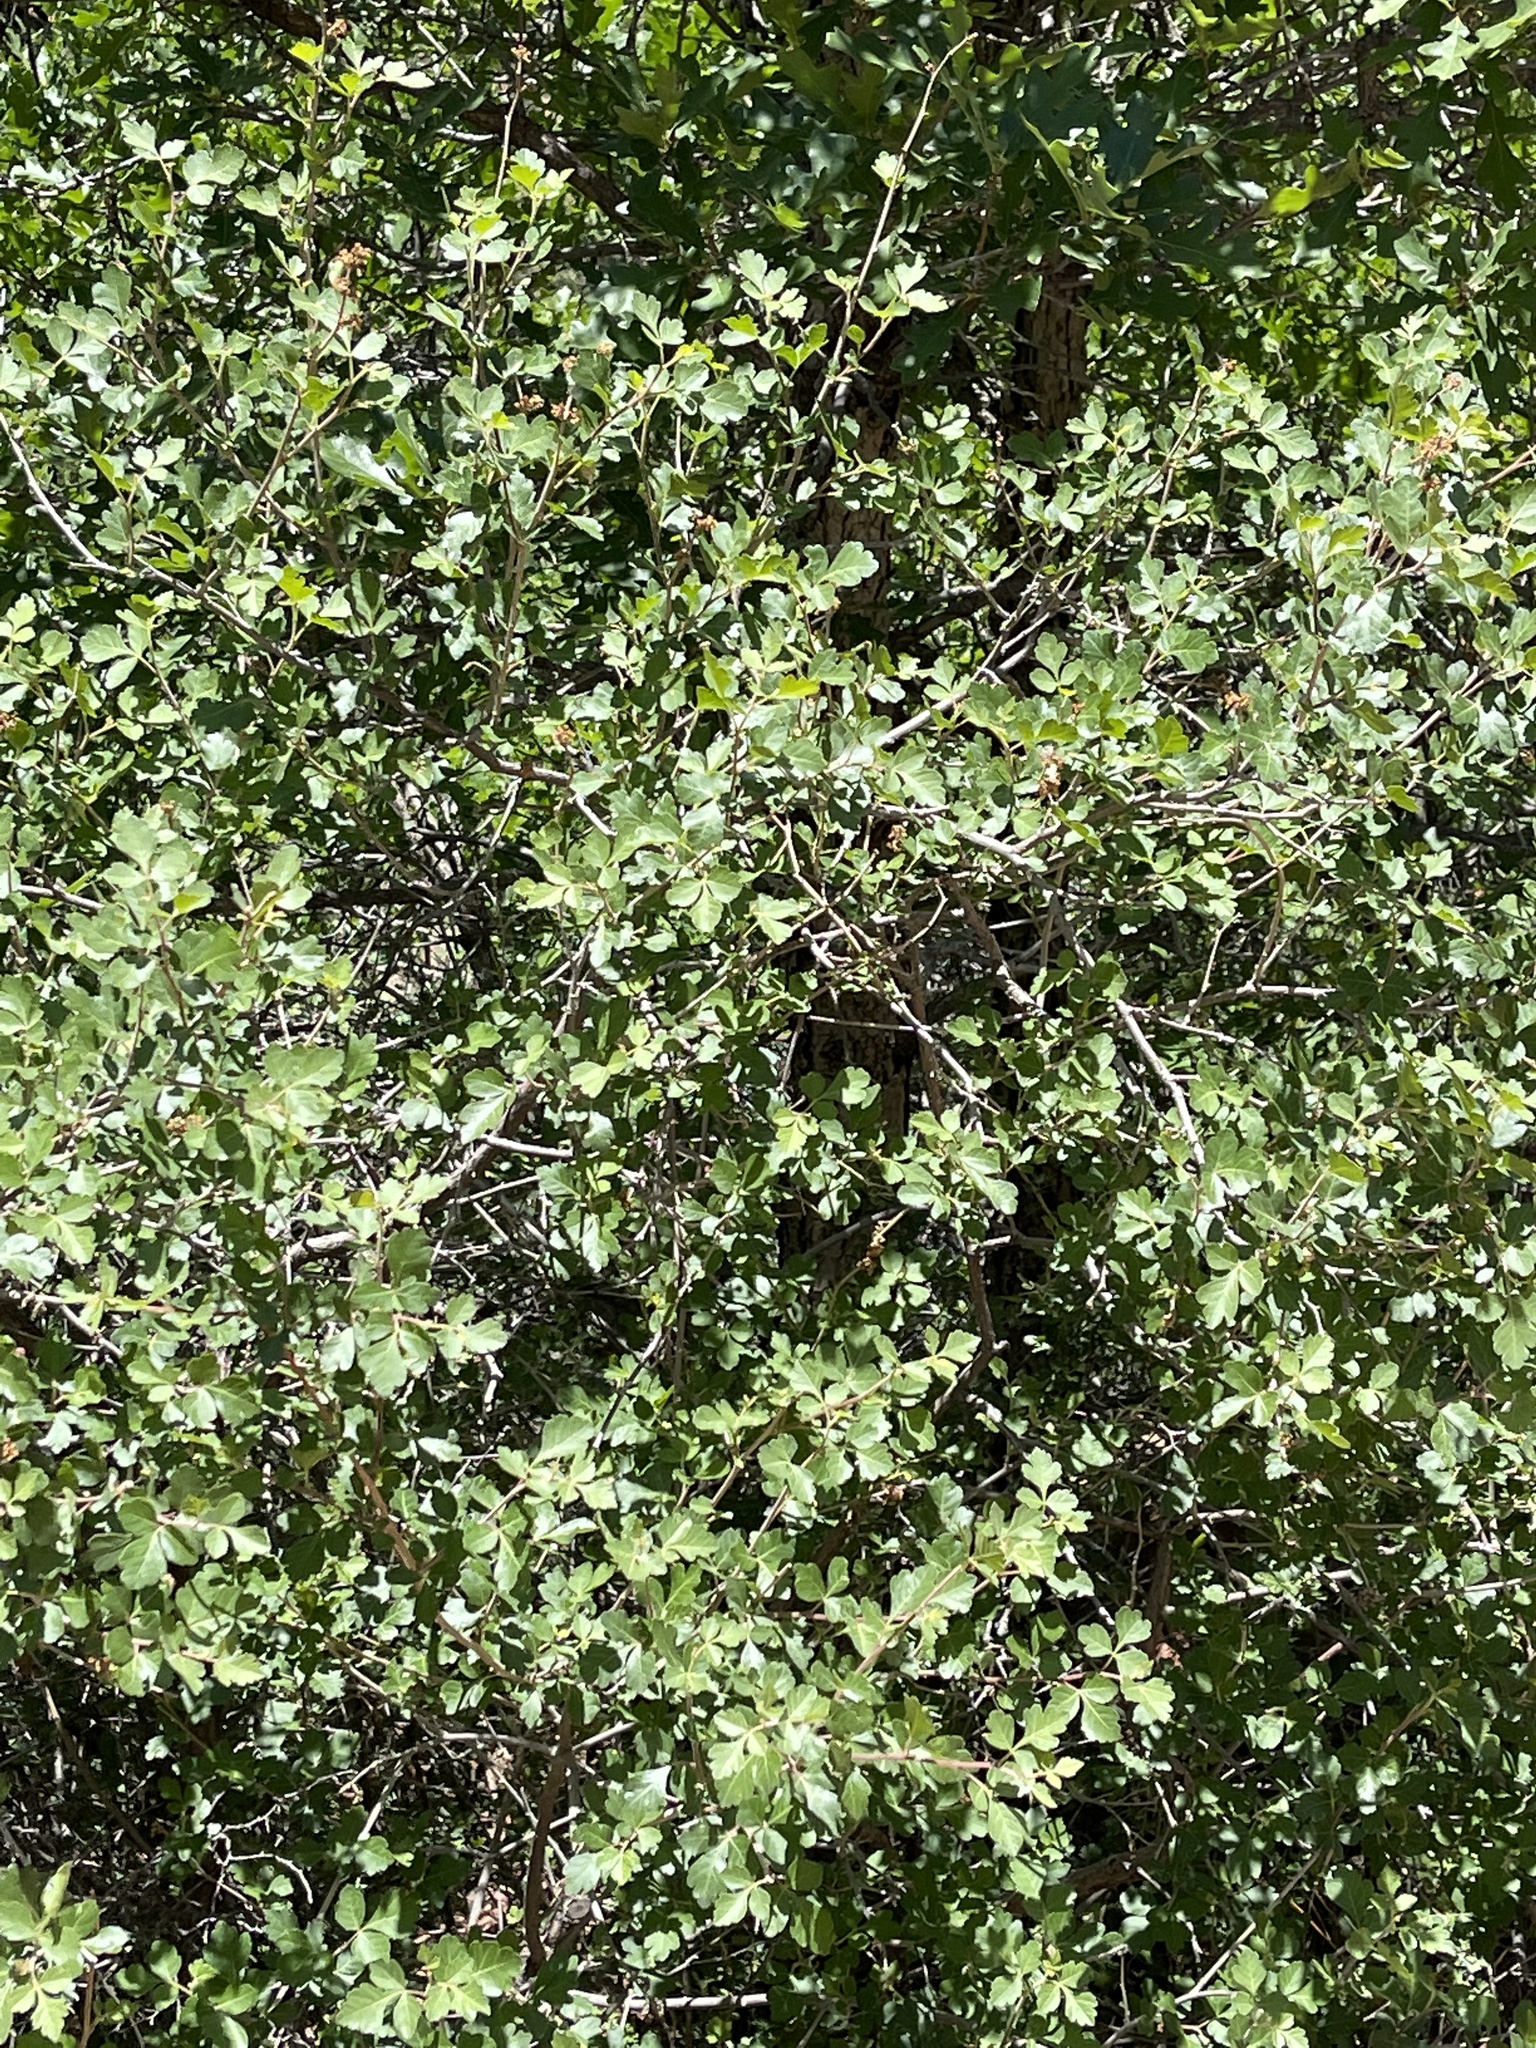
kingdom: Plantae
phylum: Tracheophyta
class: Magnoliopsida
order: Sapindales
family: Anacardiaceae
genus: Rhus
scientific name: Rhus trilobata
